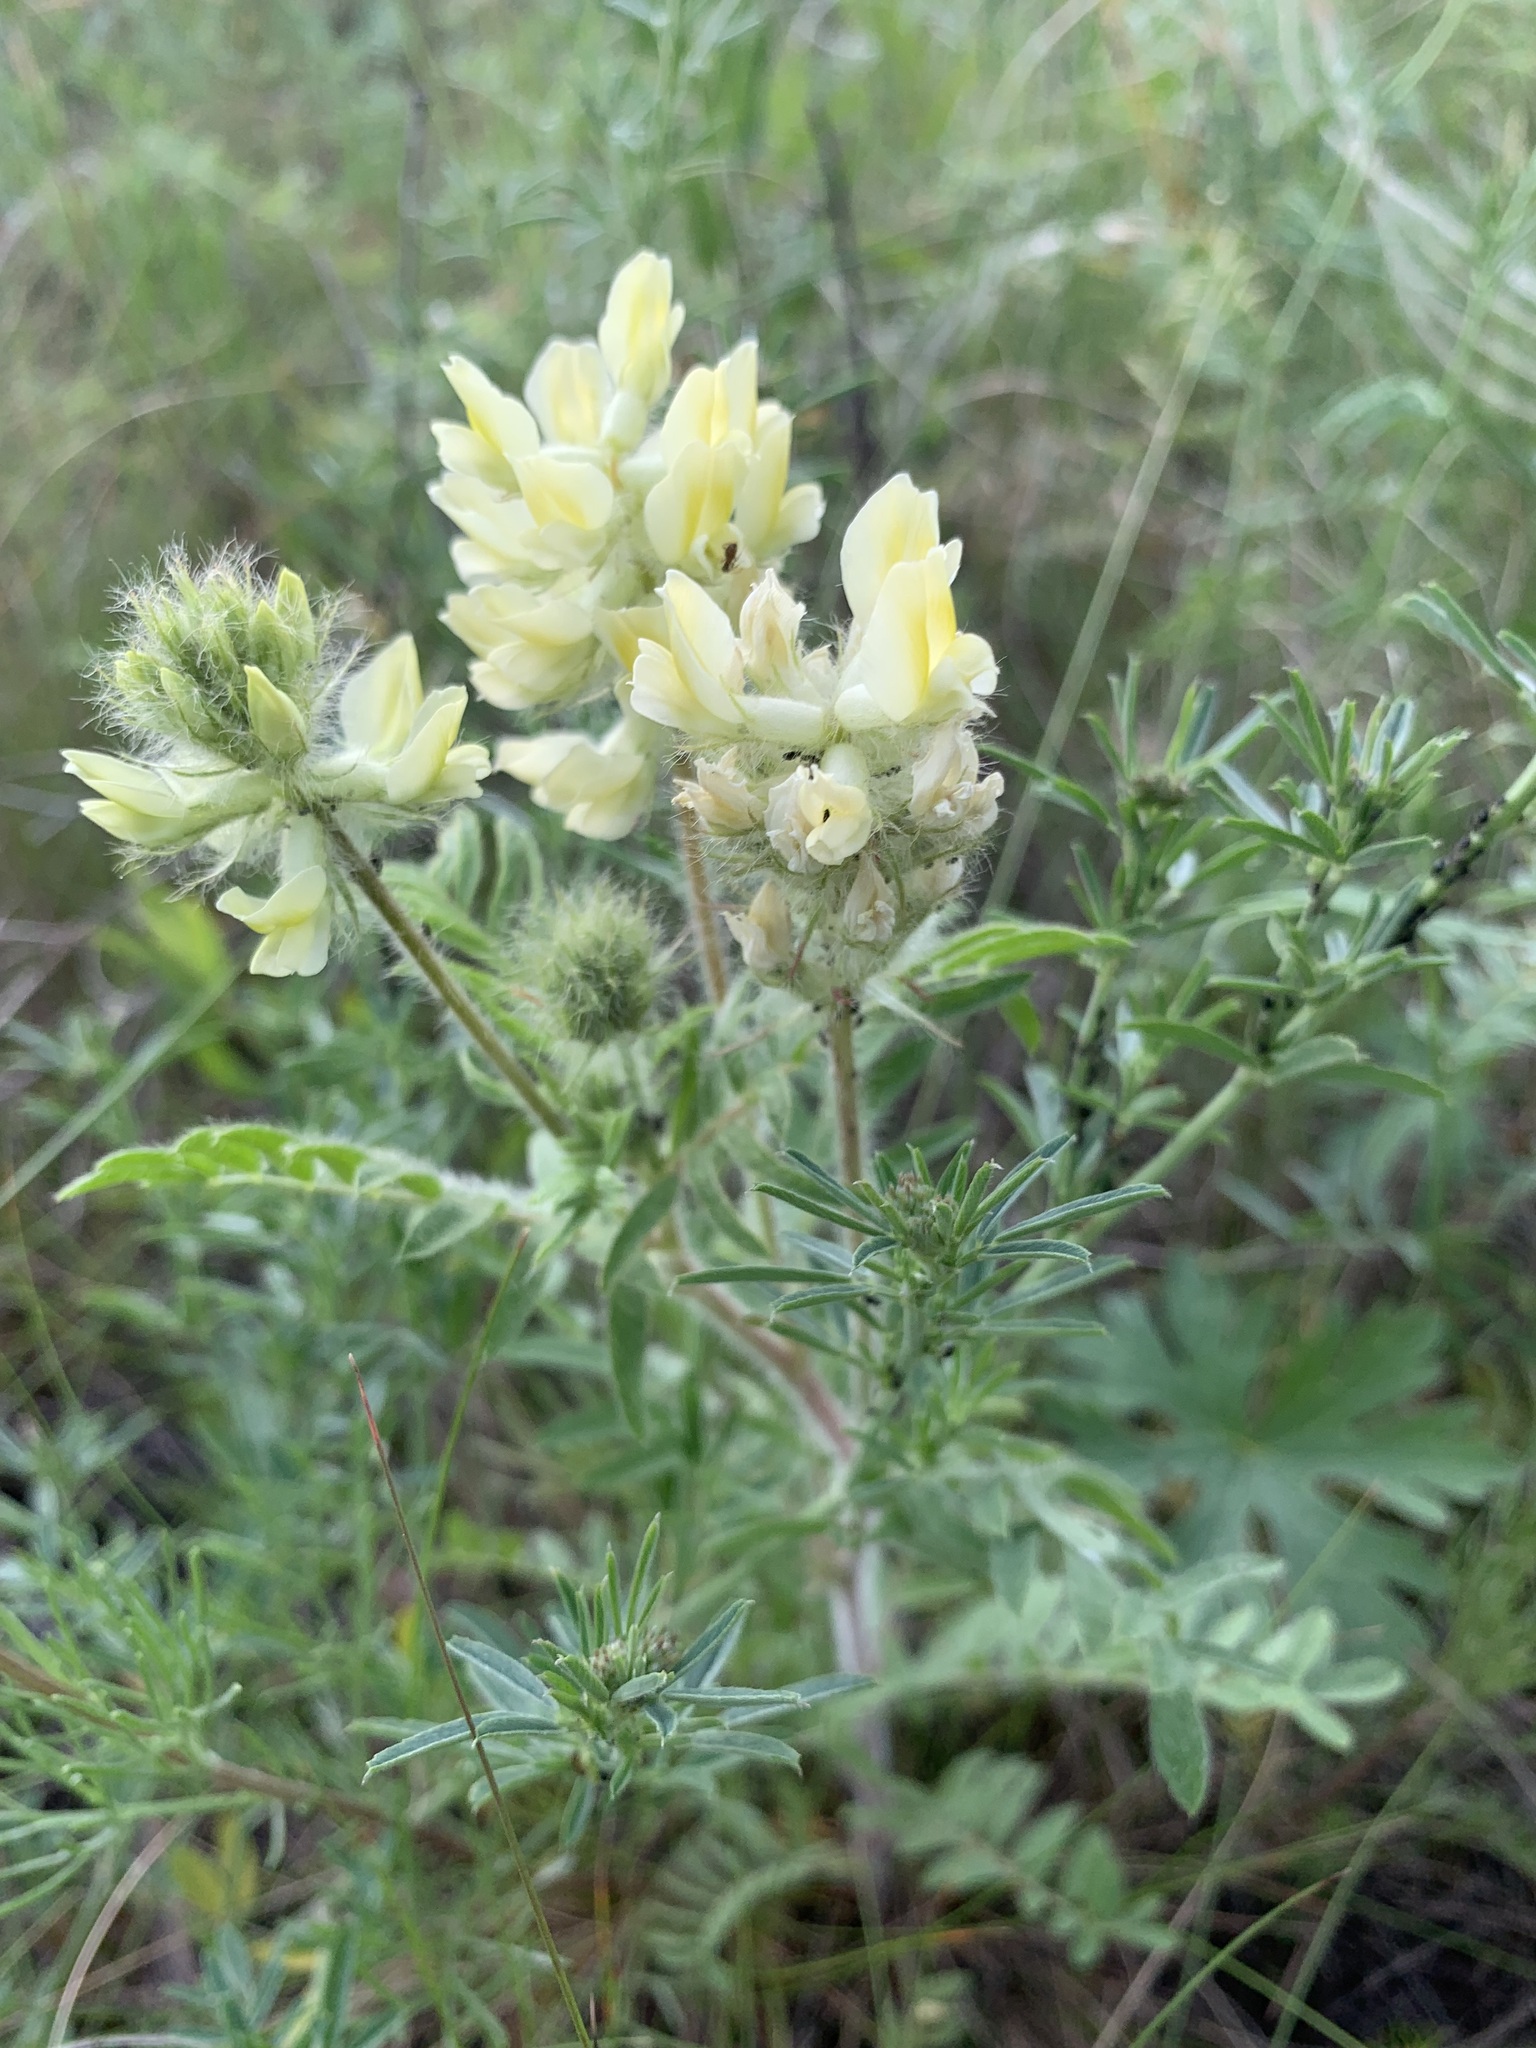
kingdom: Plantae
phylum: Tracheophyta
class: Magnoliopsida
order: Fabales
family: Fabaceae
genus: Oxytropis
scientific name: Oxytropis pilosa
